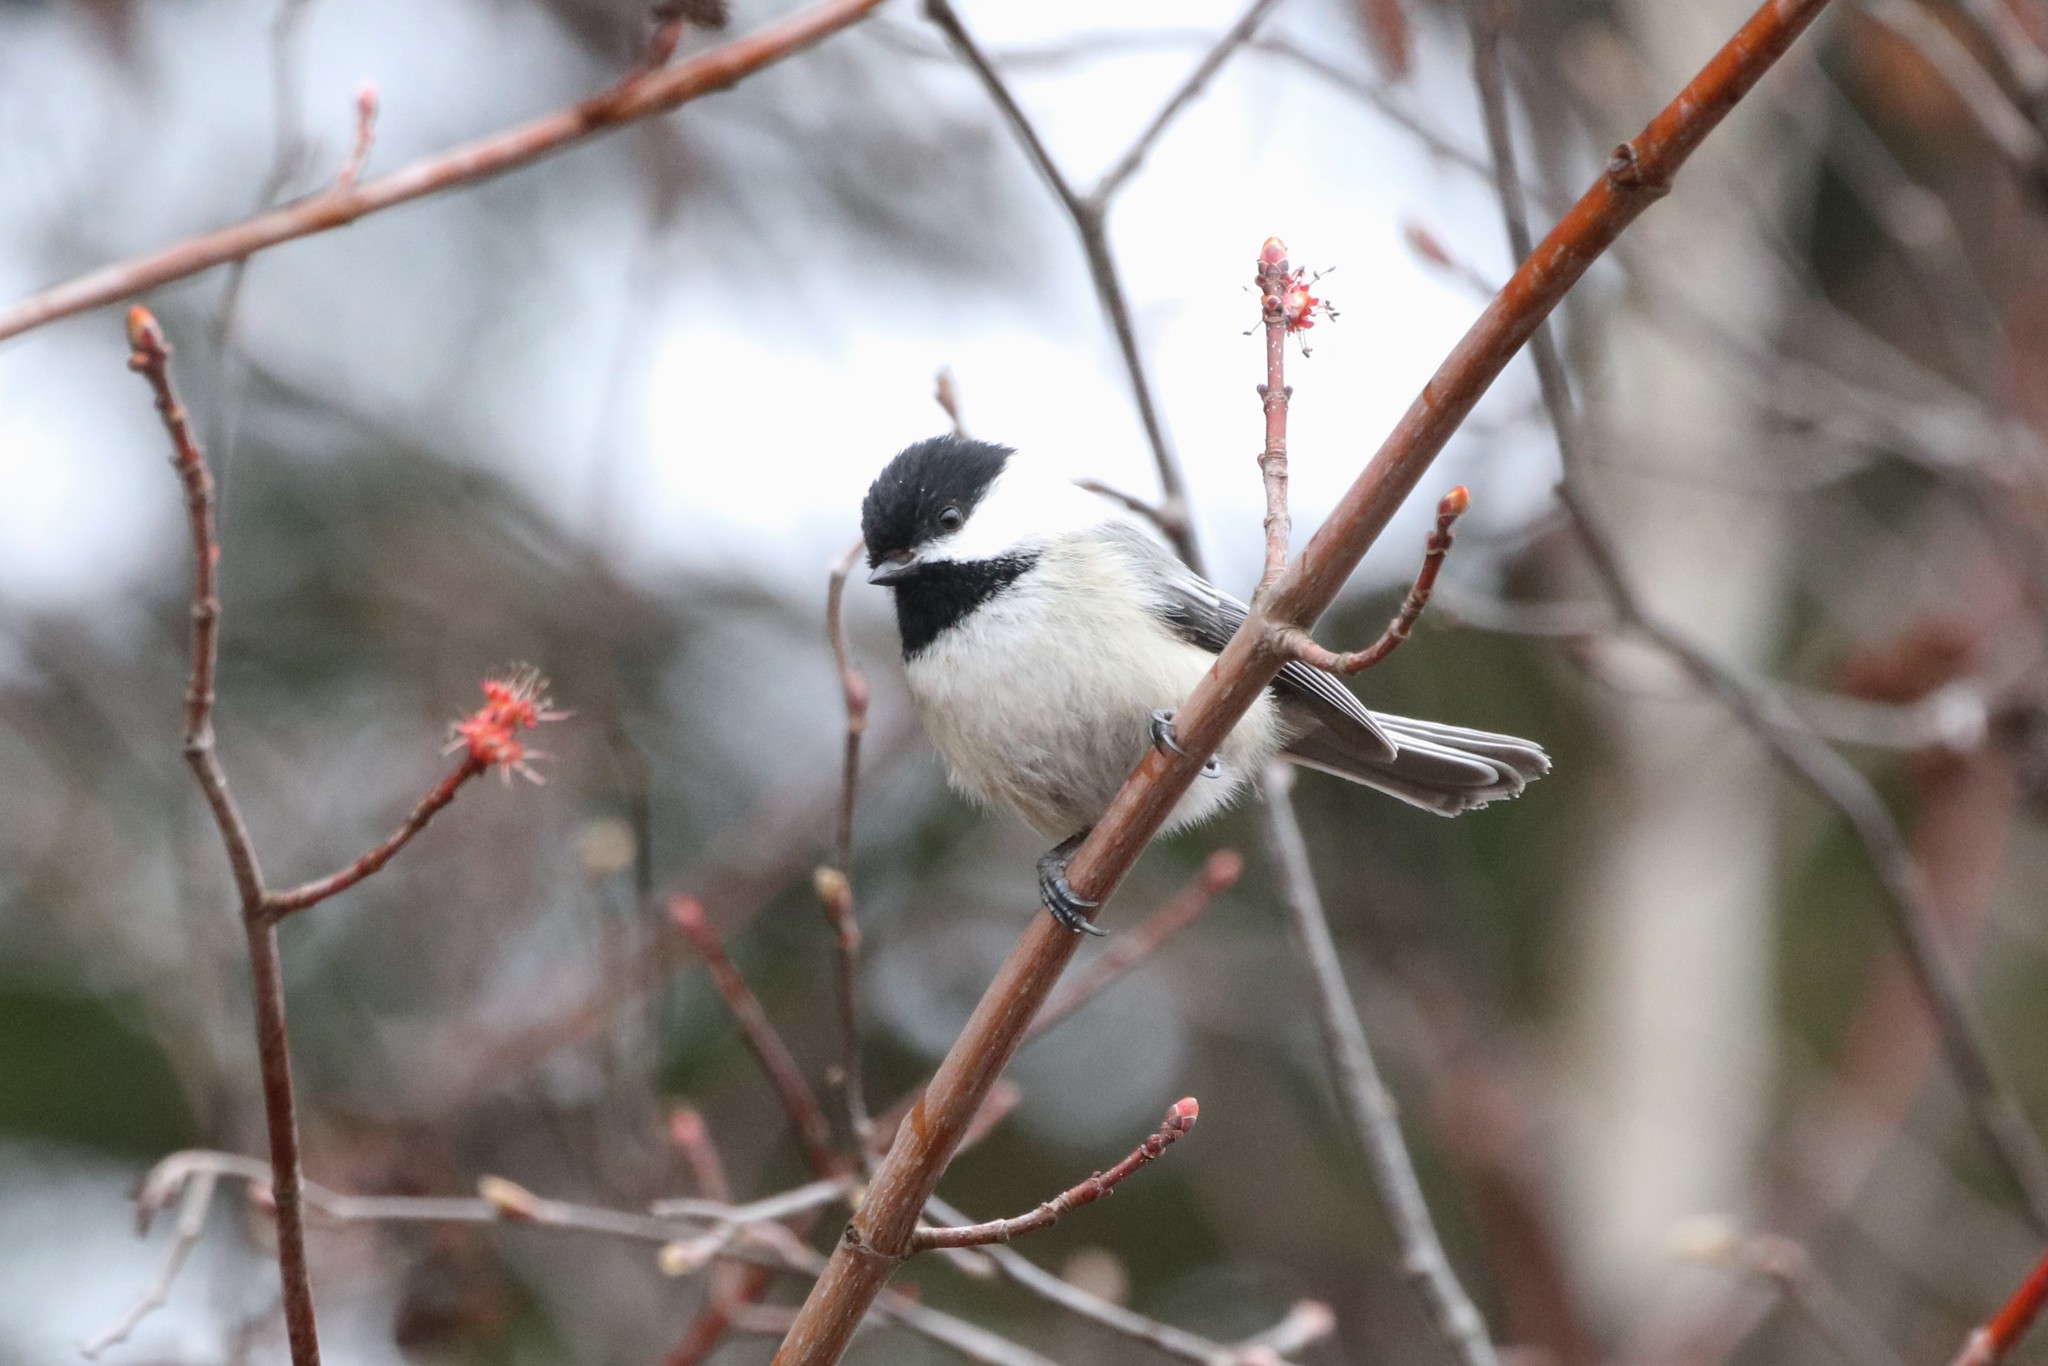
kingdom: Animalia
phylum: Chordata
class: Aves
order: Passeriformes
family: Paridae
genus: Poecile
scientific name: Poecile atricapillus
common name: Black-capped chickadee
